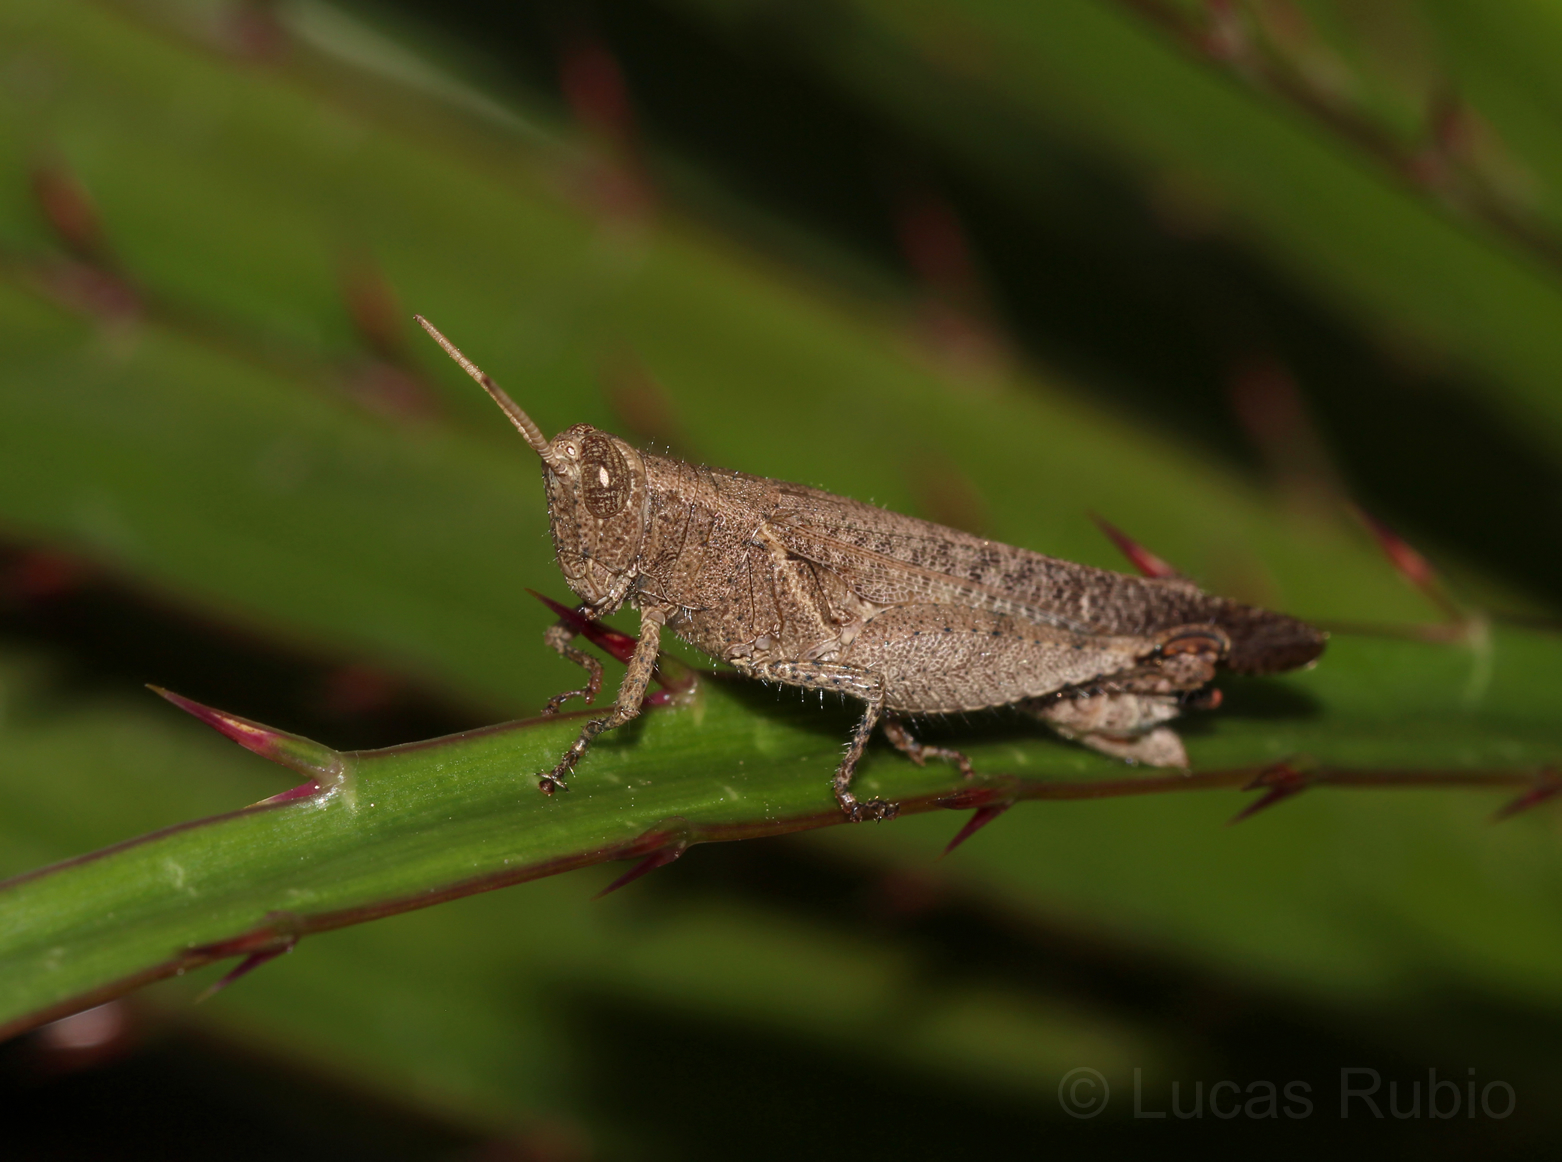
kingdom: Animalia
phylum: Arthropoda
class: Insecta
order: Orthoptera
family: Acrididae
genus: Abracris
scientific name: Abracris dilecta
